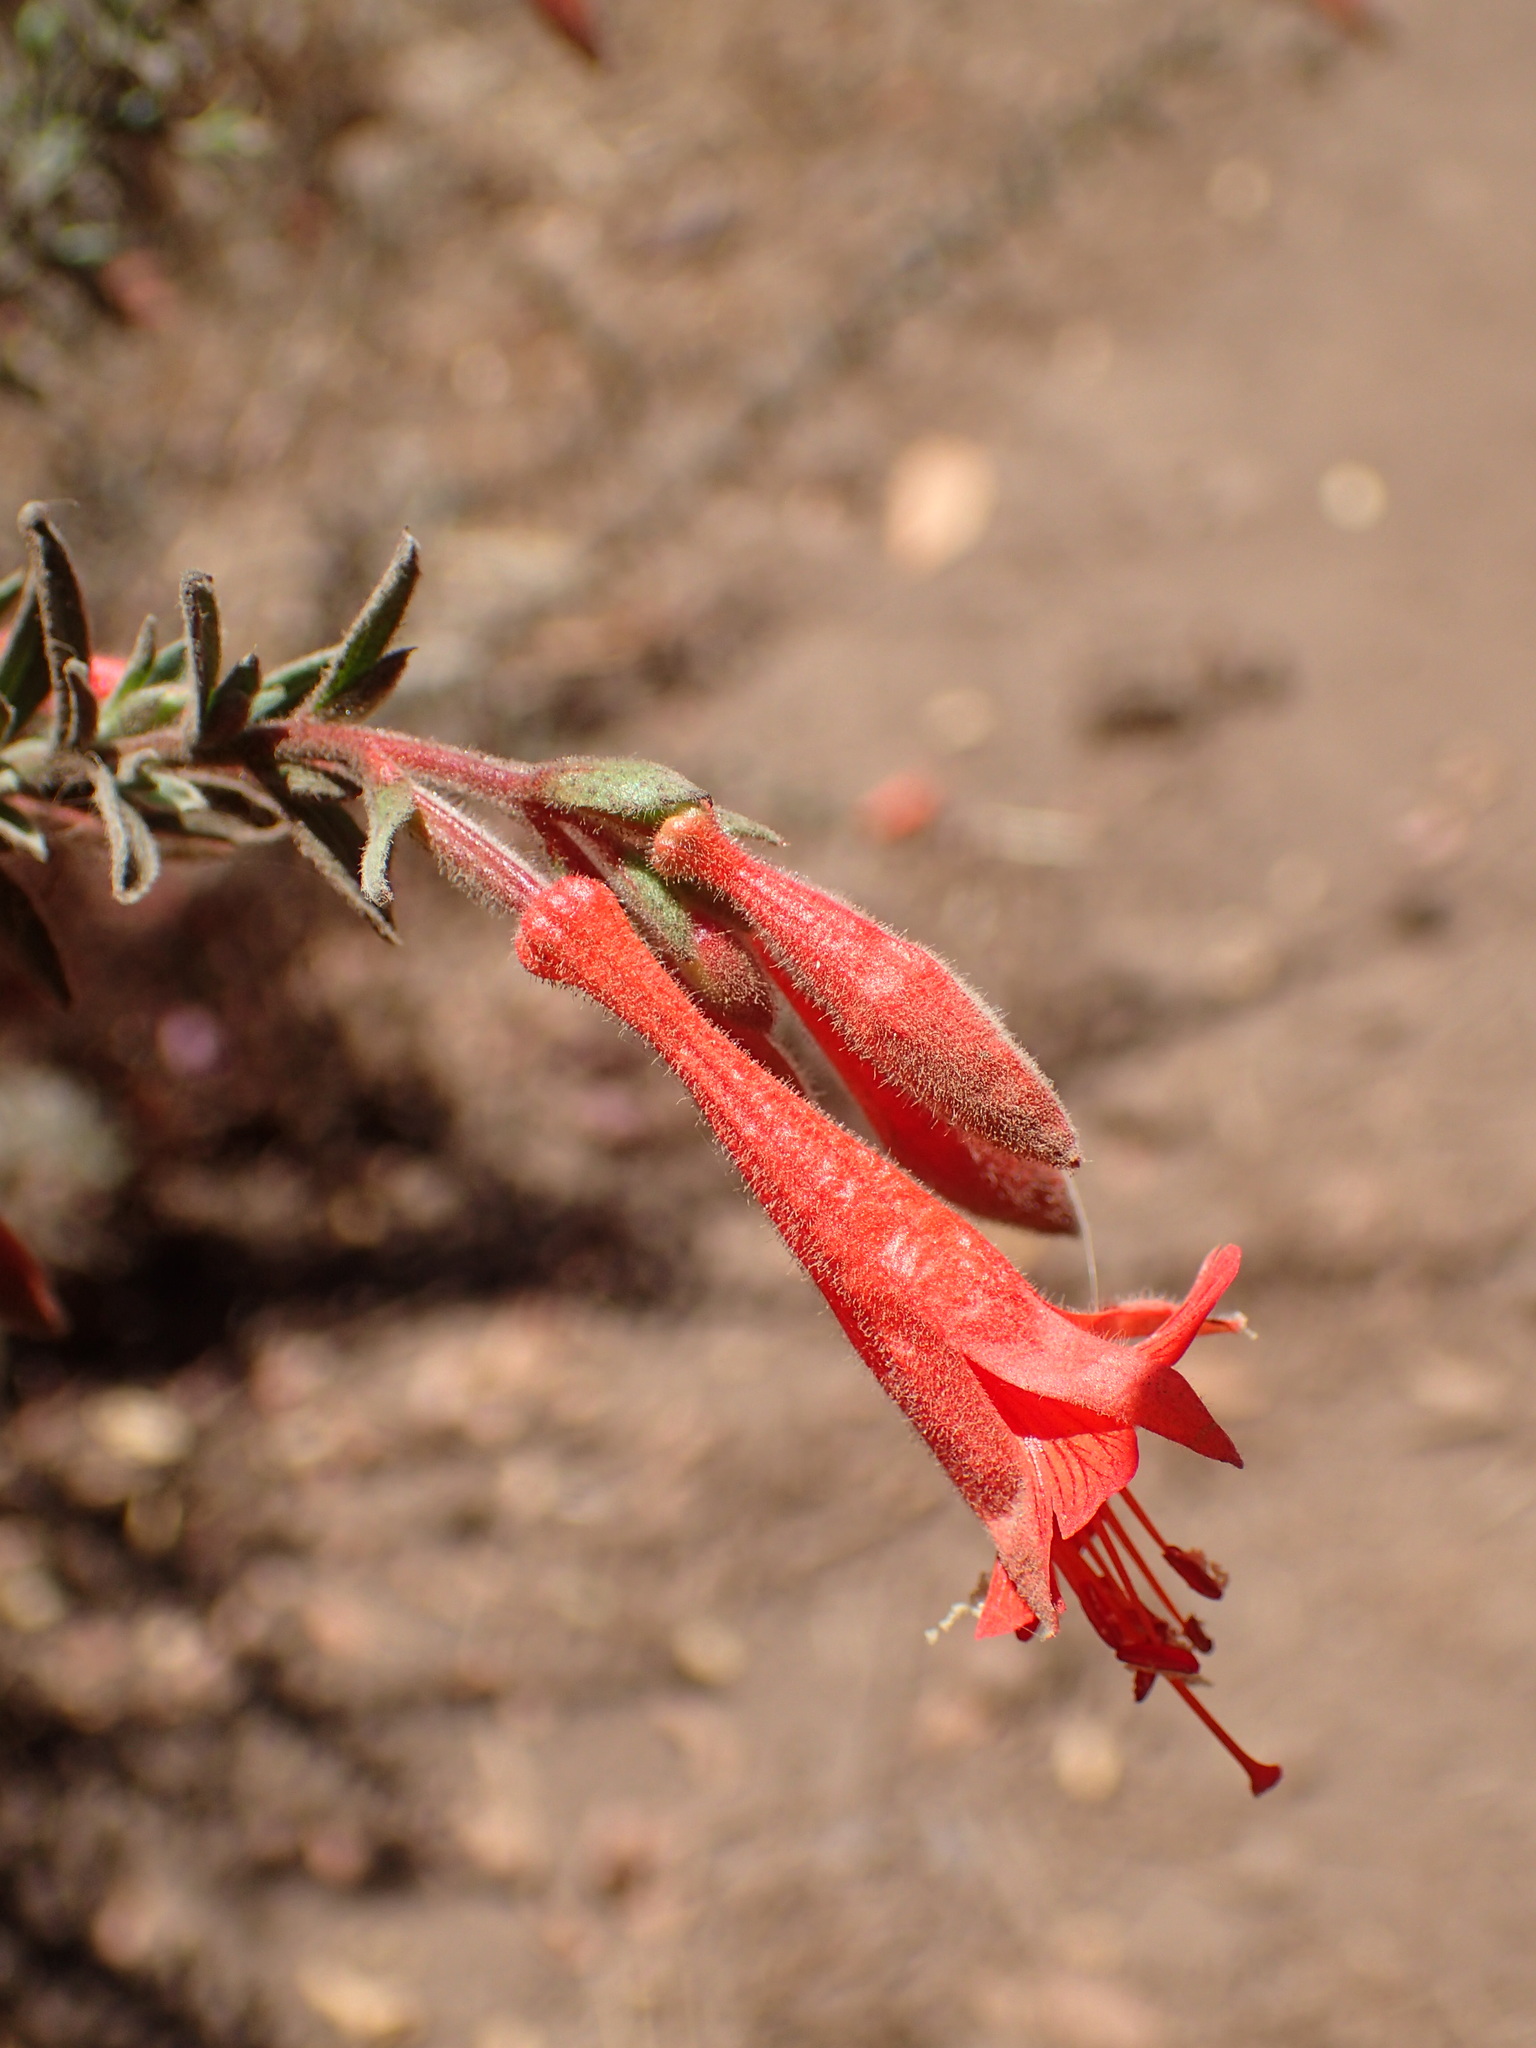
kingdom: Plantae
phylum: Tracheophyta
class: Magnoliopsida
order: Myrtales
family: Onagraceae
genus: Epilobium
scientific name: Epilobium canum
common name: California-fuchsia
